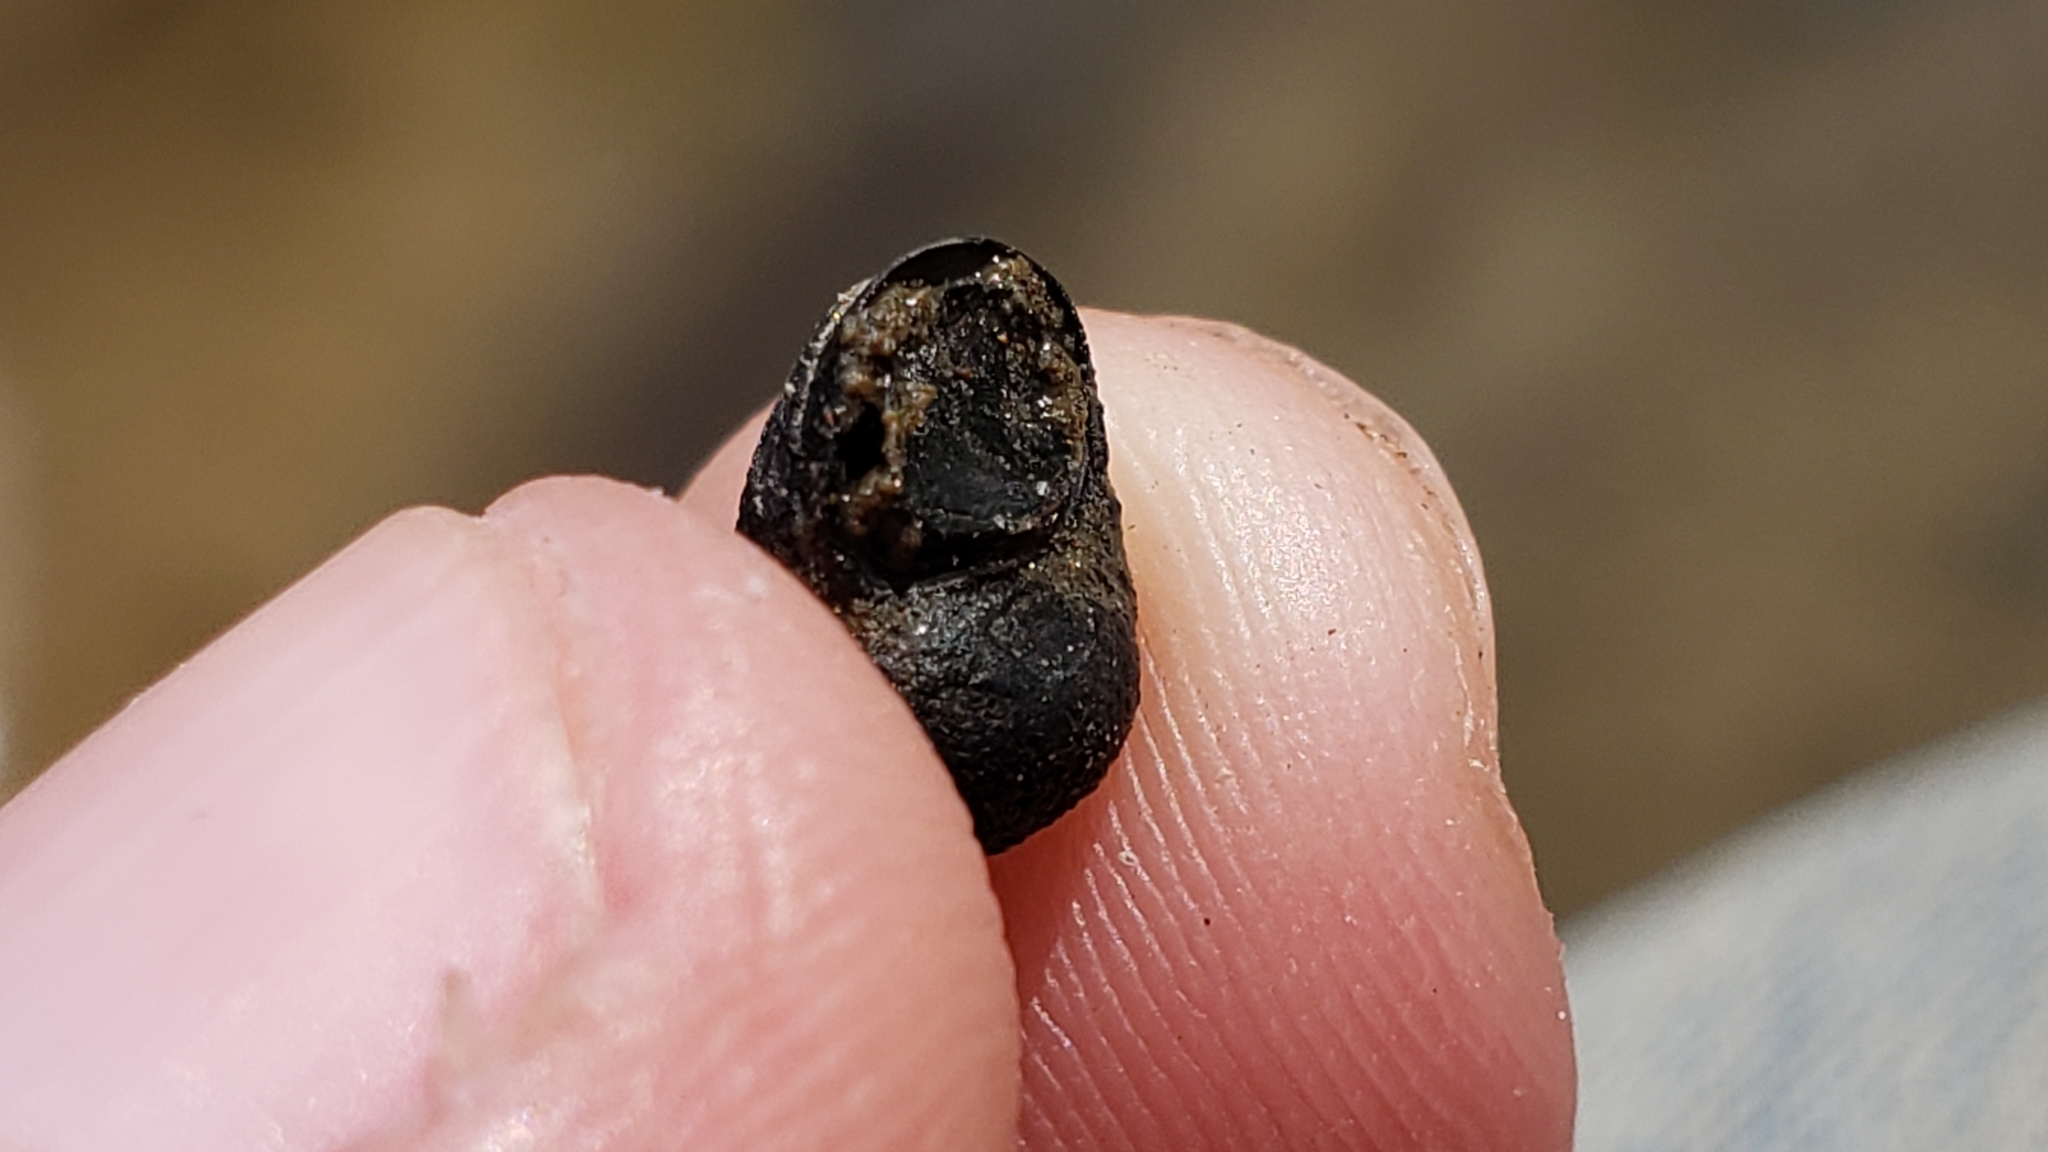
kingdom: Animalia
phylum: Mollusca
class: Gastropoda
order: Architaenioglossa
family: Viviparidae
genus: Cipangopaludina
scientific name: Cipangopaludina chinensis
